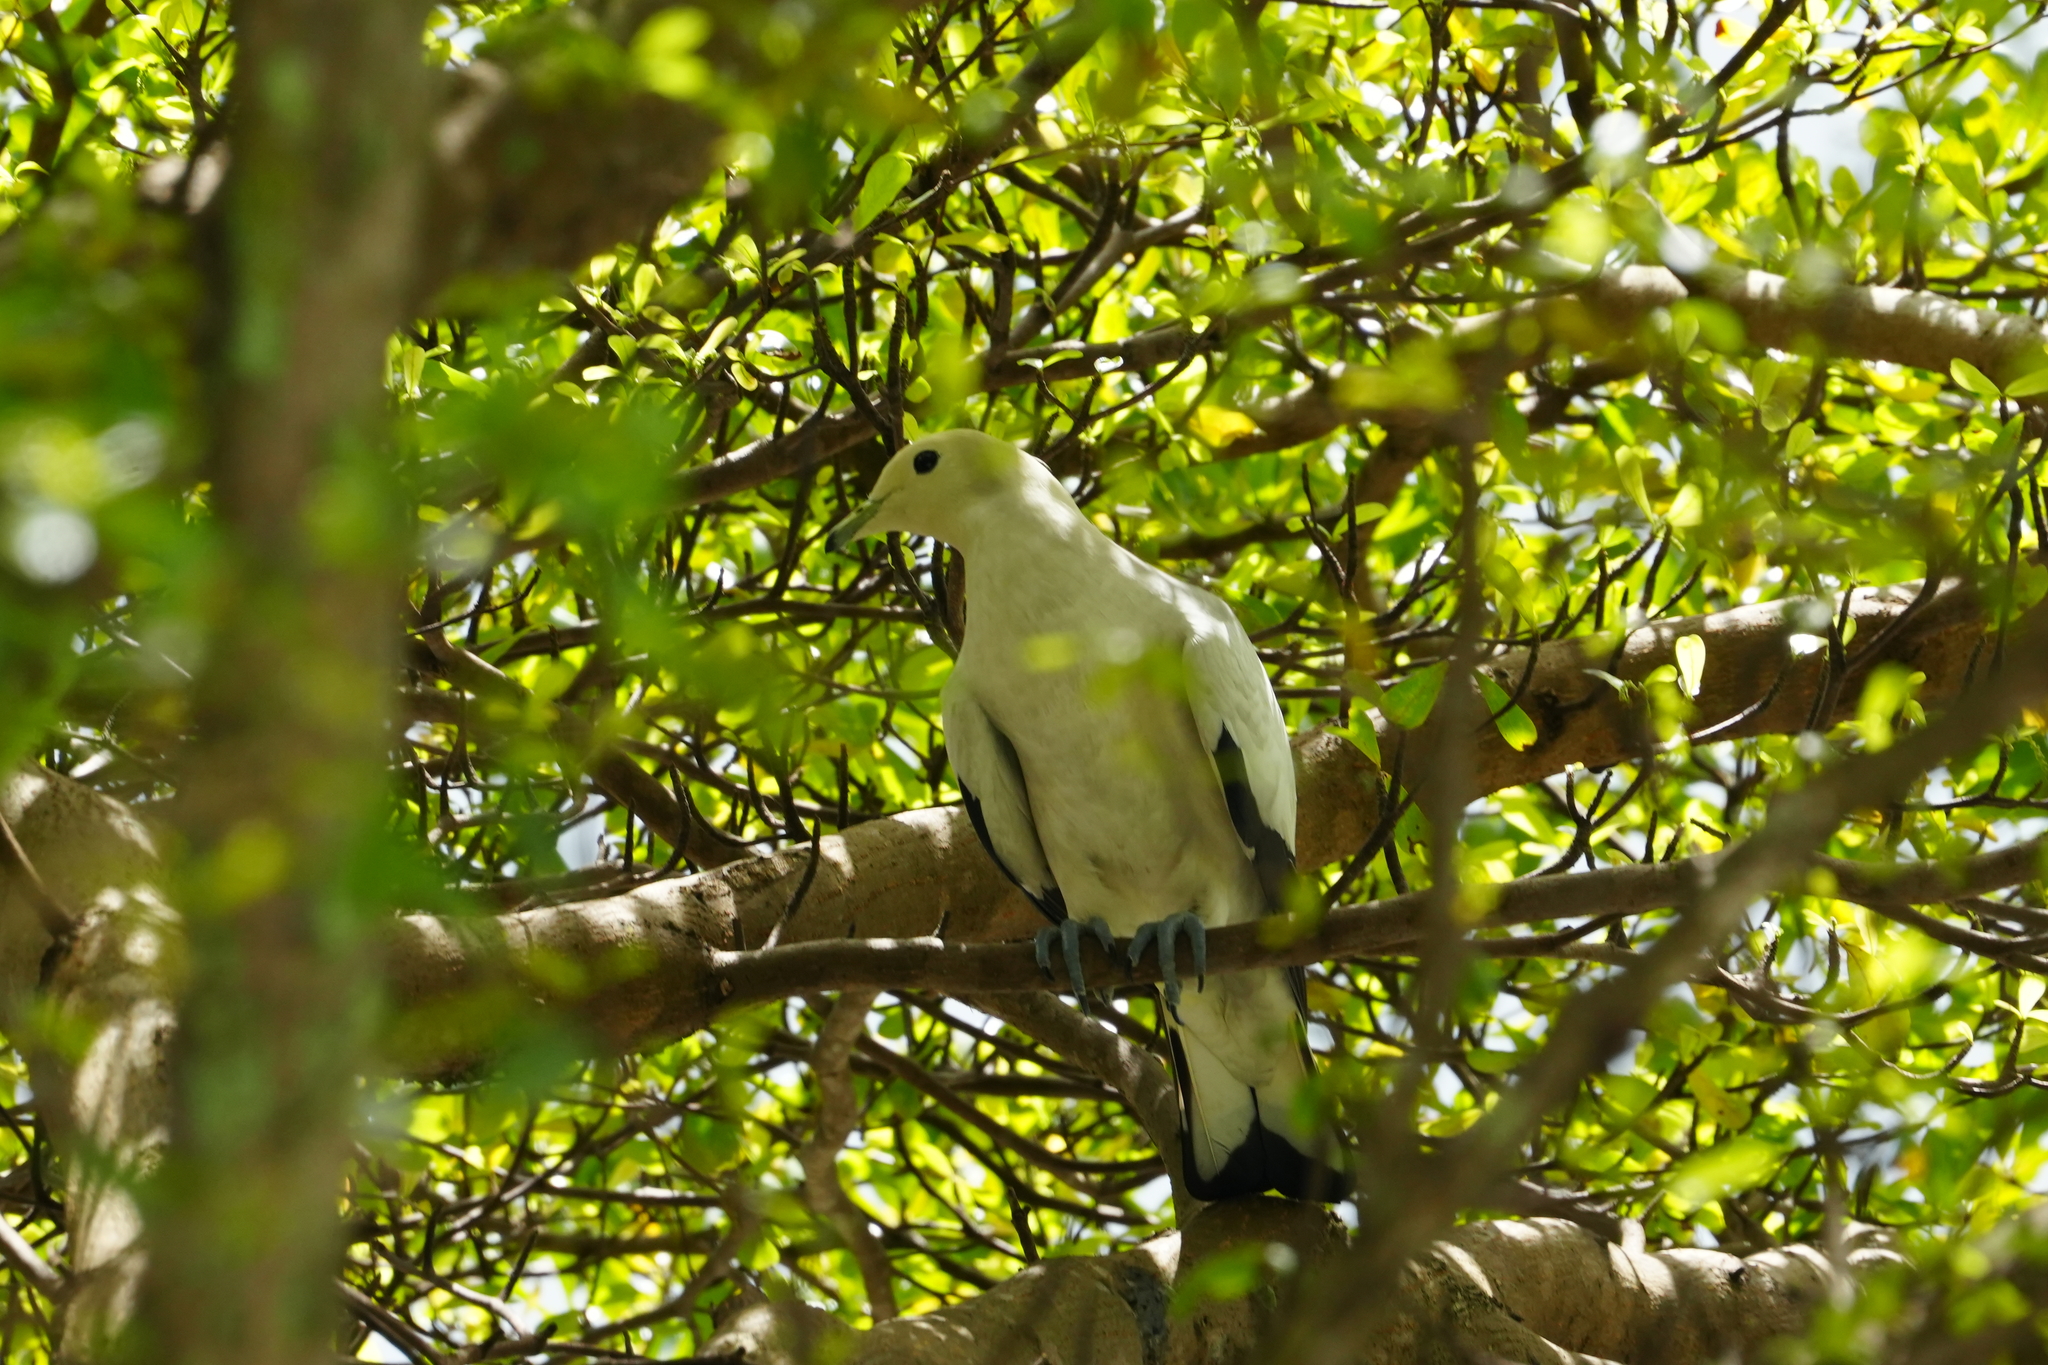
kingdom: Animalia
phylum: Chordata
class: Aves
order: Columbiformes
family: Columbidae
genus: Ducula
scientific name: Ducula bicolor
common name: Pied imperial pigeon
